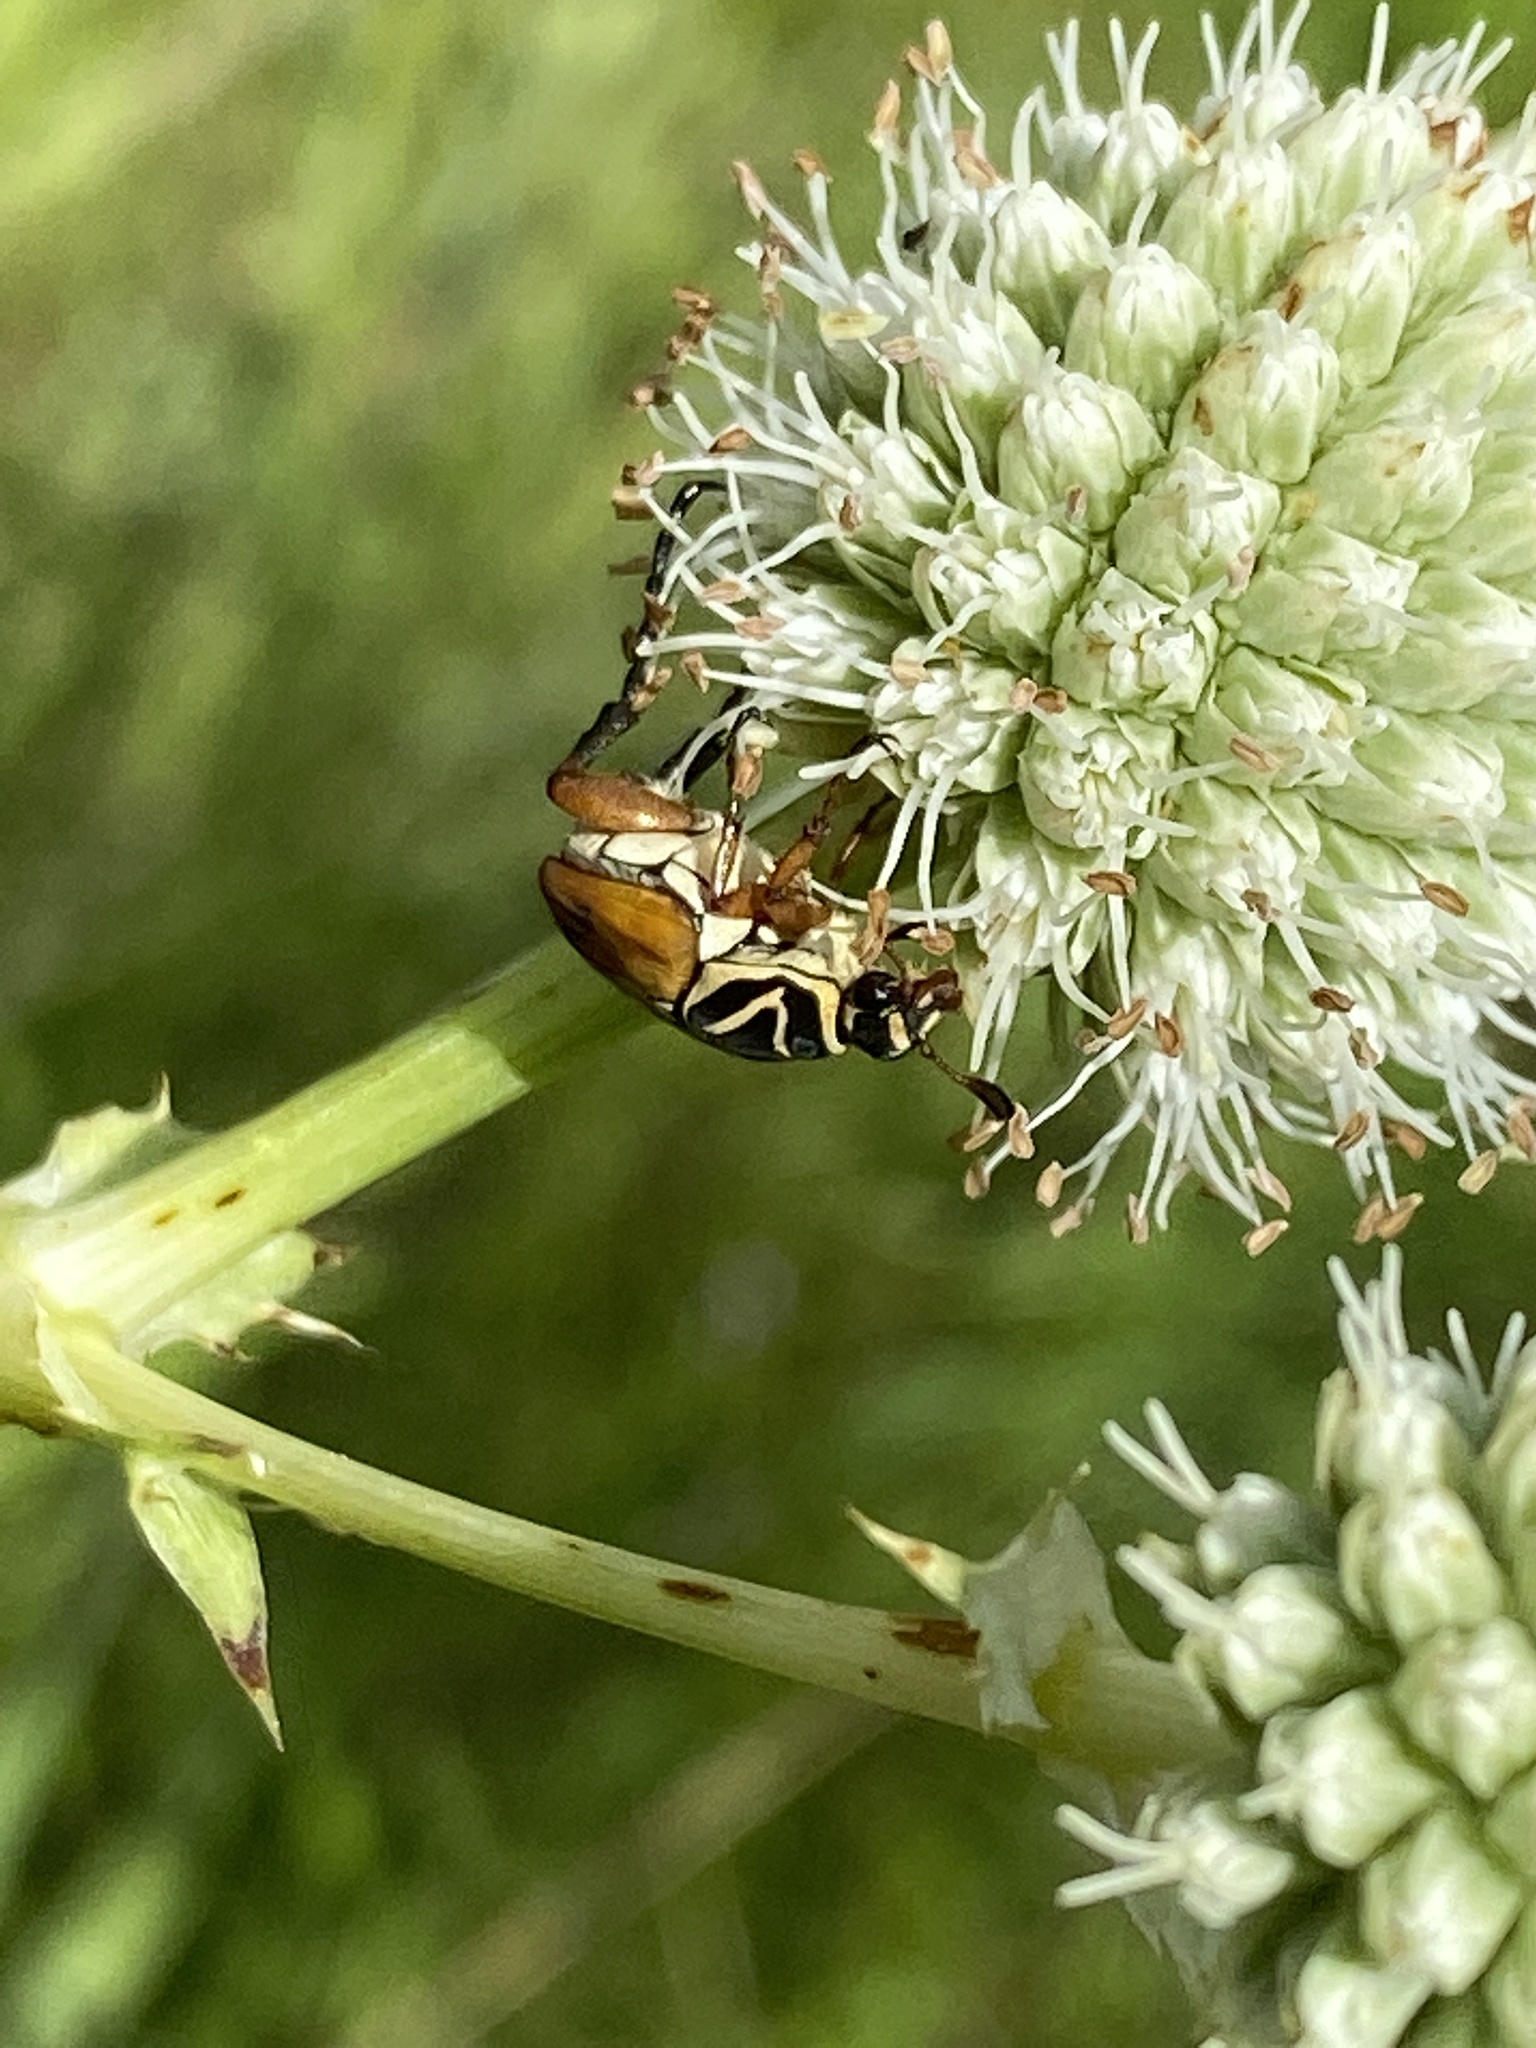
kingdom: Animalia
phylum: Arthropoda
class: Insecta
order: Coleoptera
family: Scarabaeidae
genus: Trigonopeltastes
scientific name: Trigonopeltastes delta
